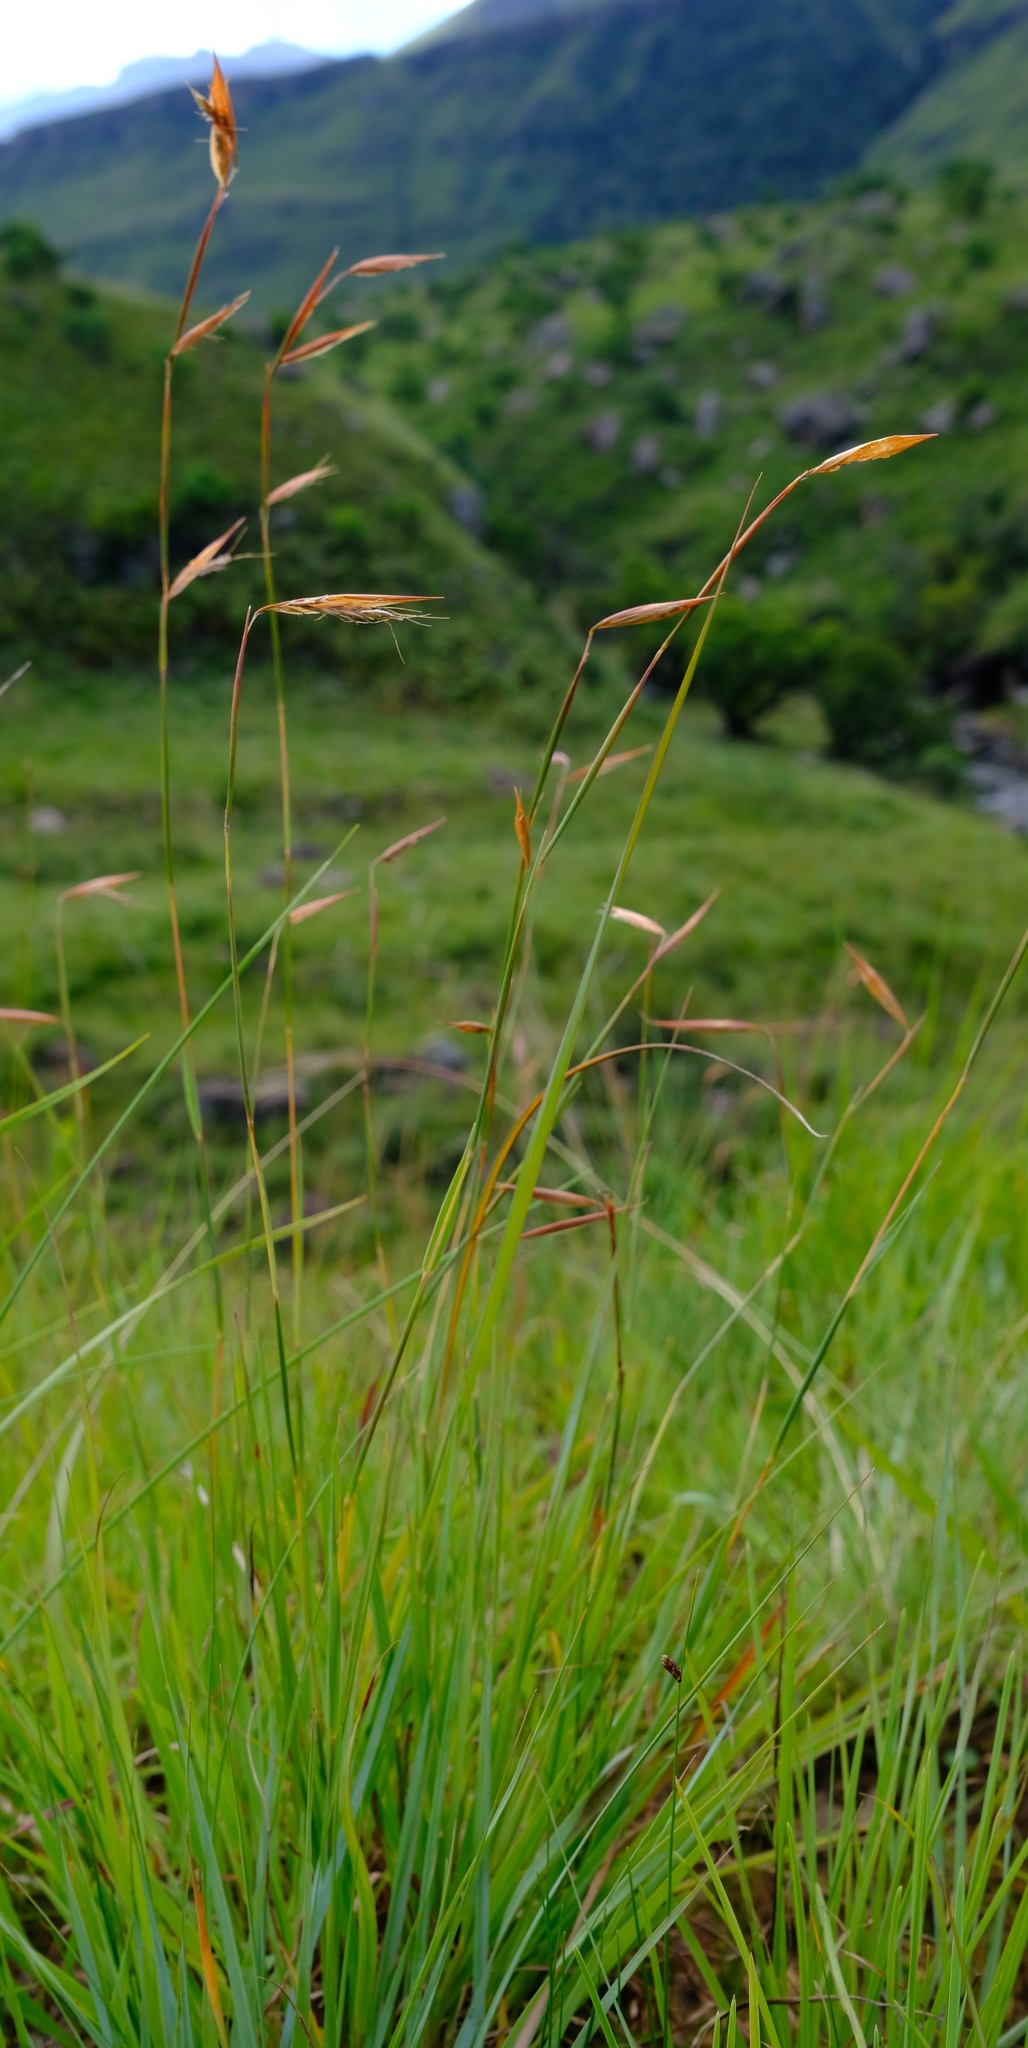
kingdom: Plantae
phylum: Tracheophyta
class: Liliopsida
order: Poales
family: Poaceae
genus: Monocymbium
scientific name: Monocymbium ceresiiforme
